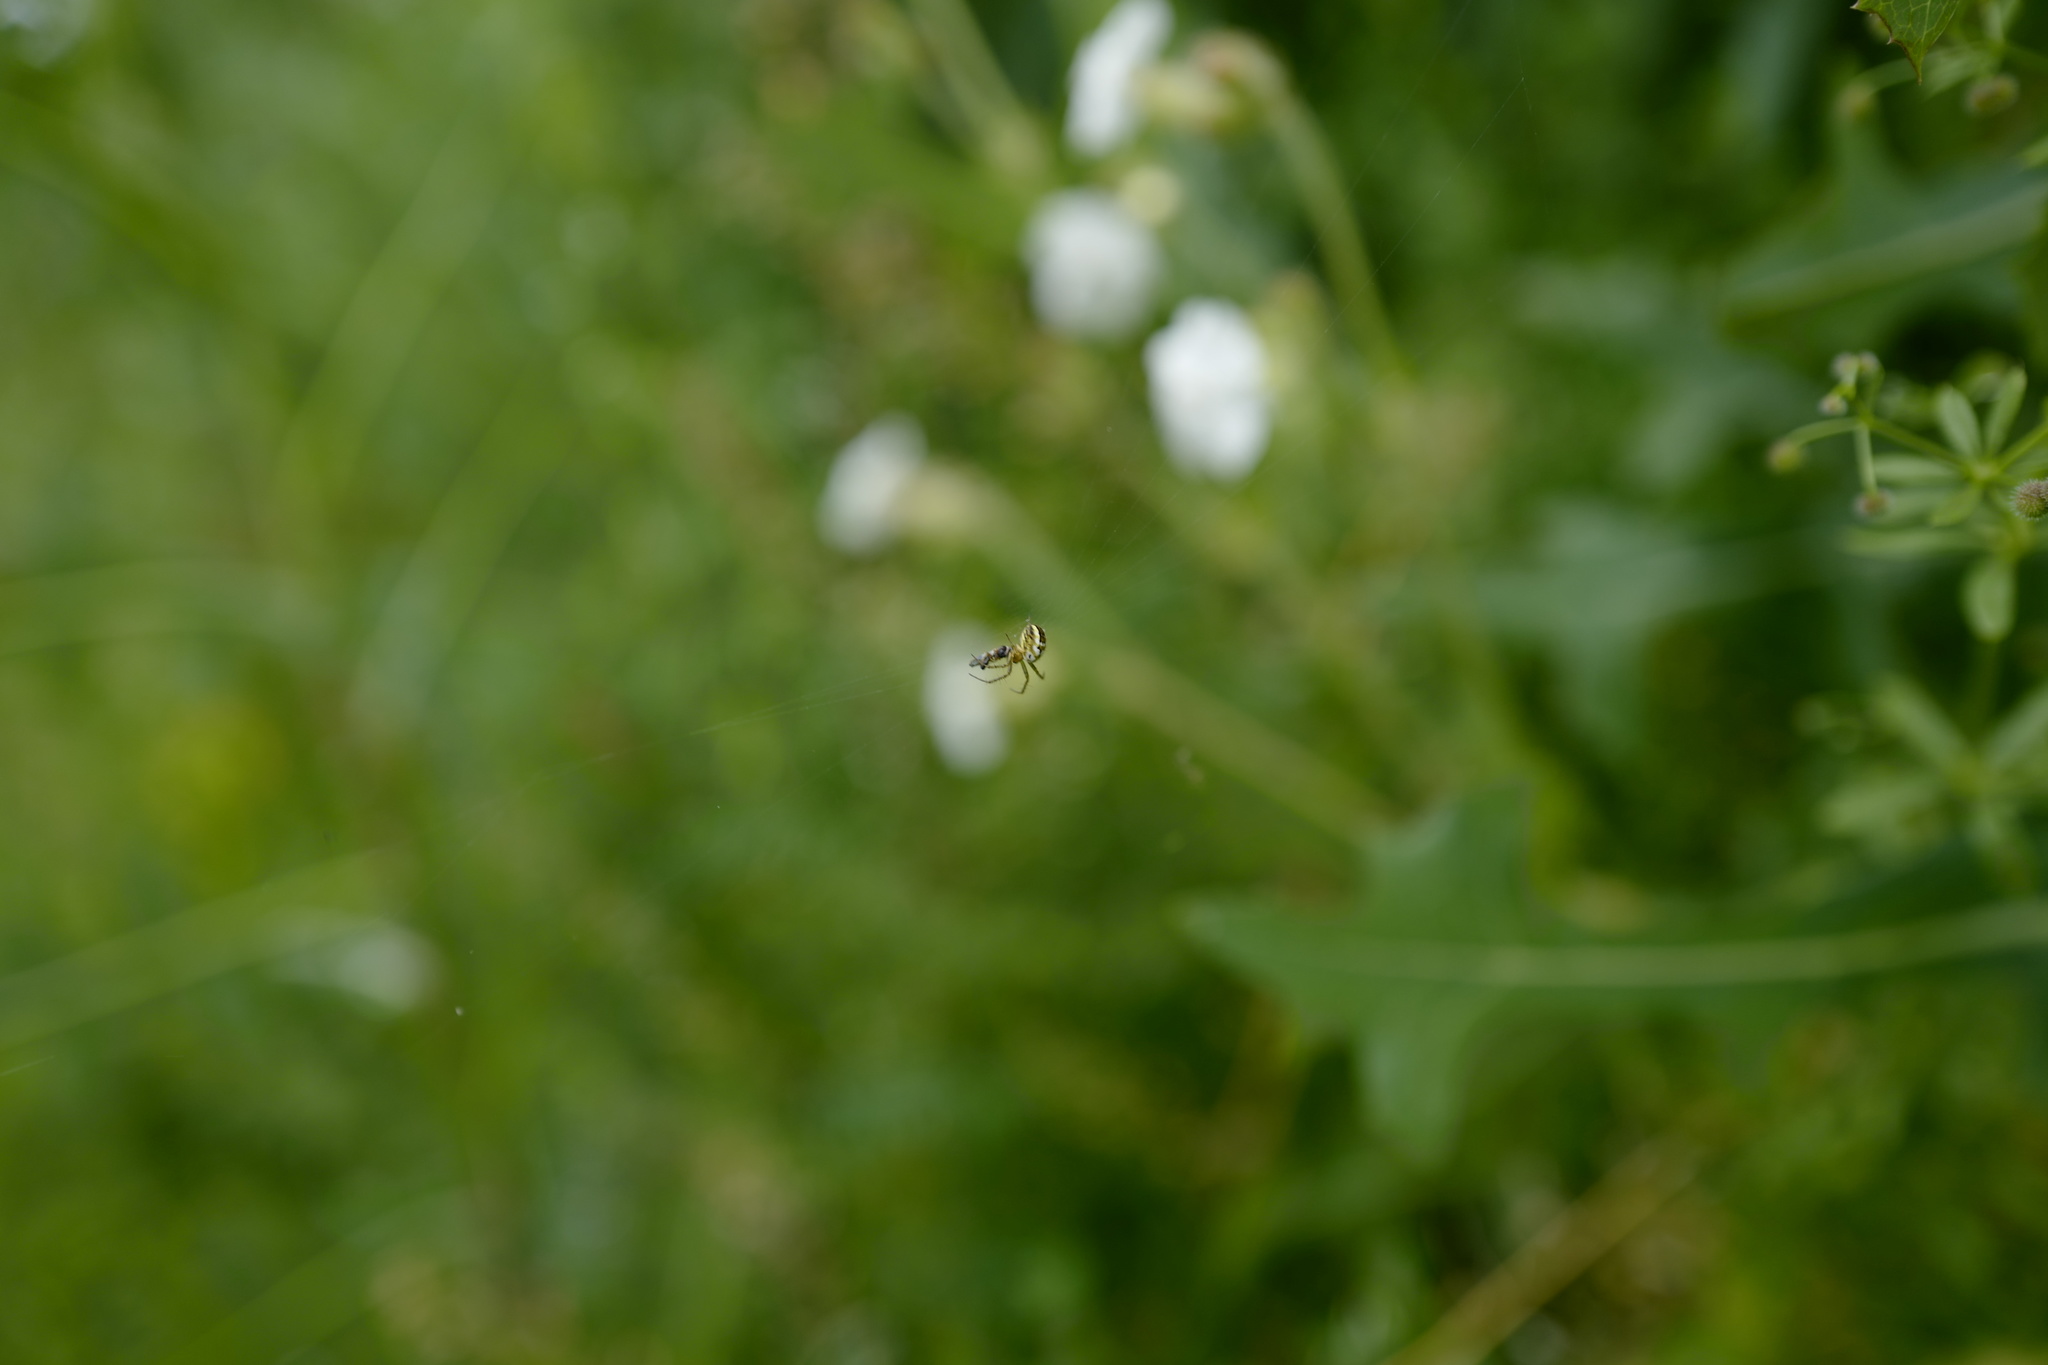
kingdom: Animalia
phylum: Arthropoda
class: Arachnida
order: Araneae
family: Araneidae
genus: Mangora
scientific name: Mangora acalypha
